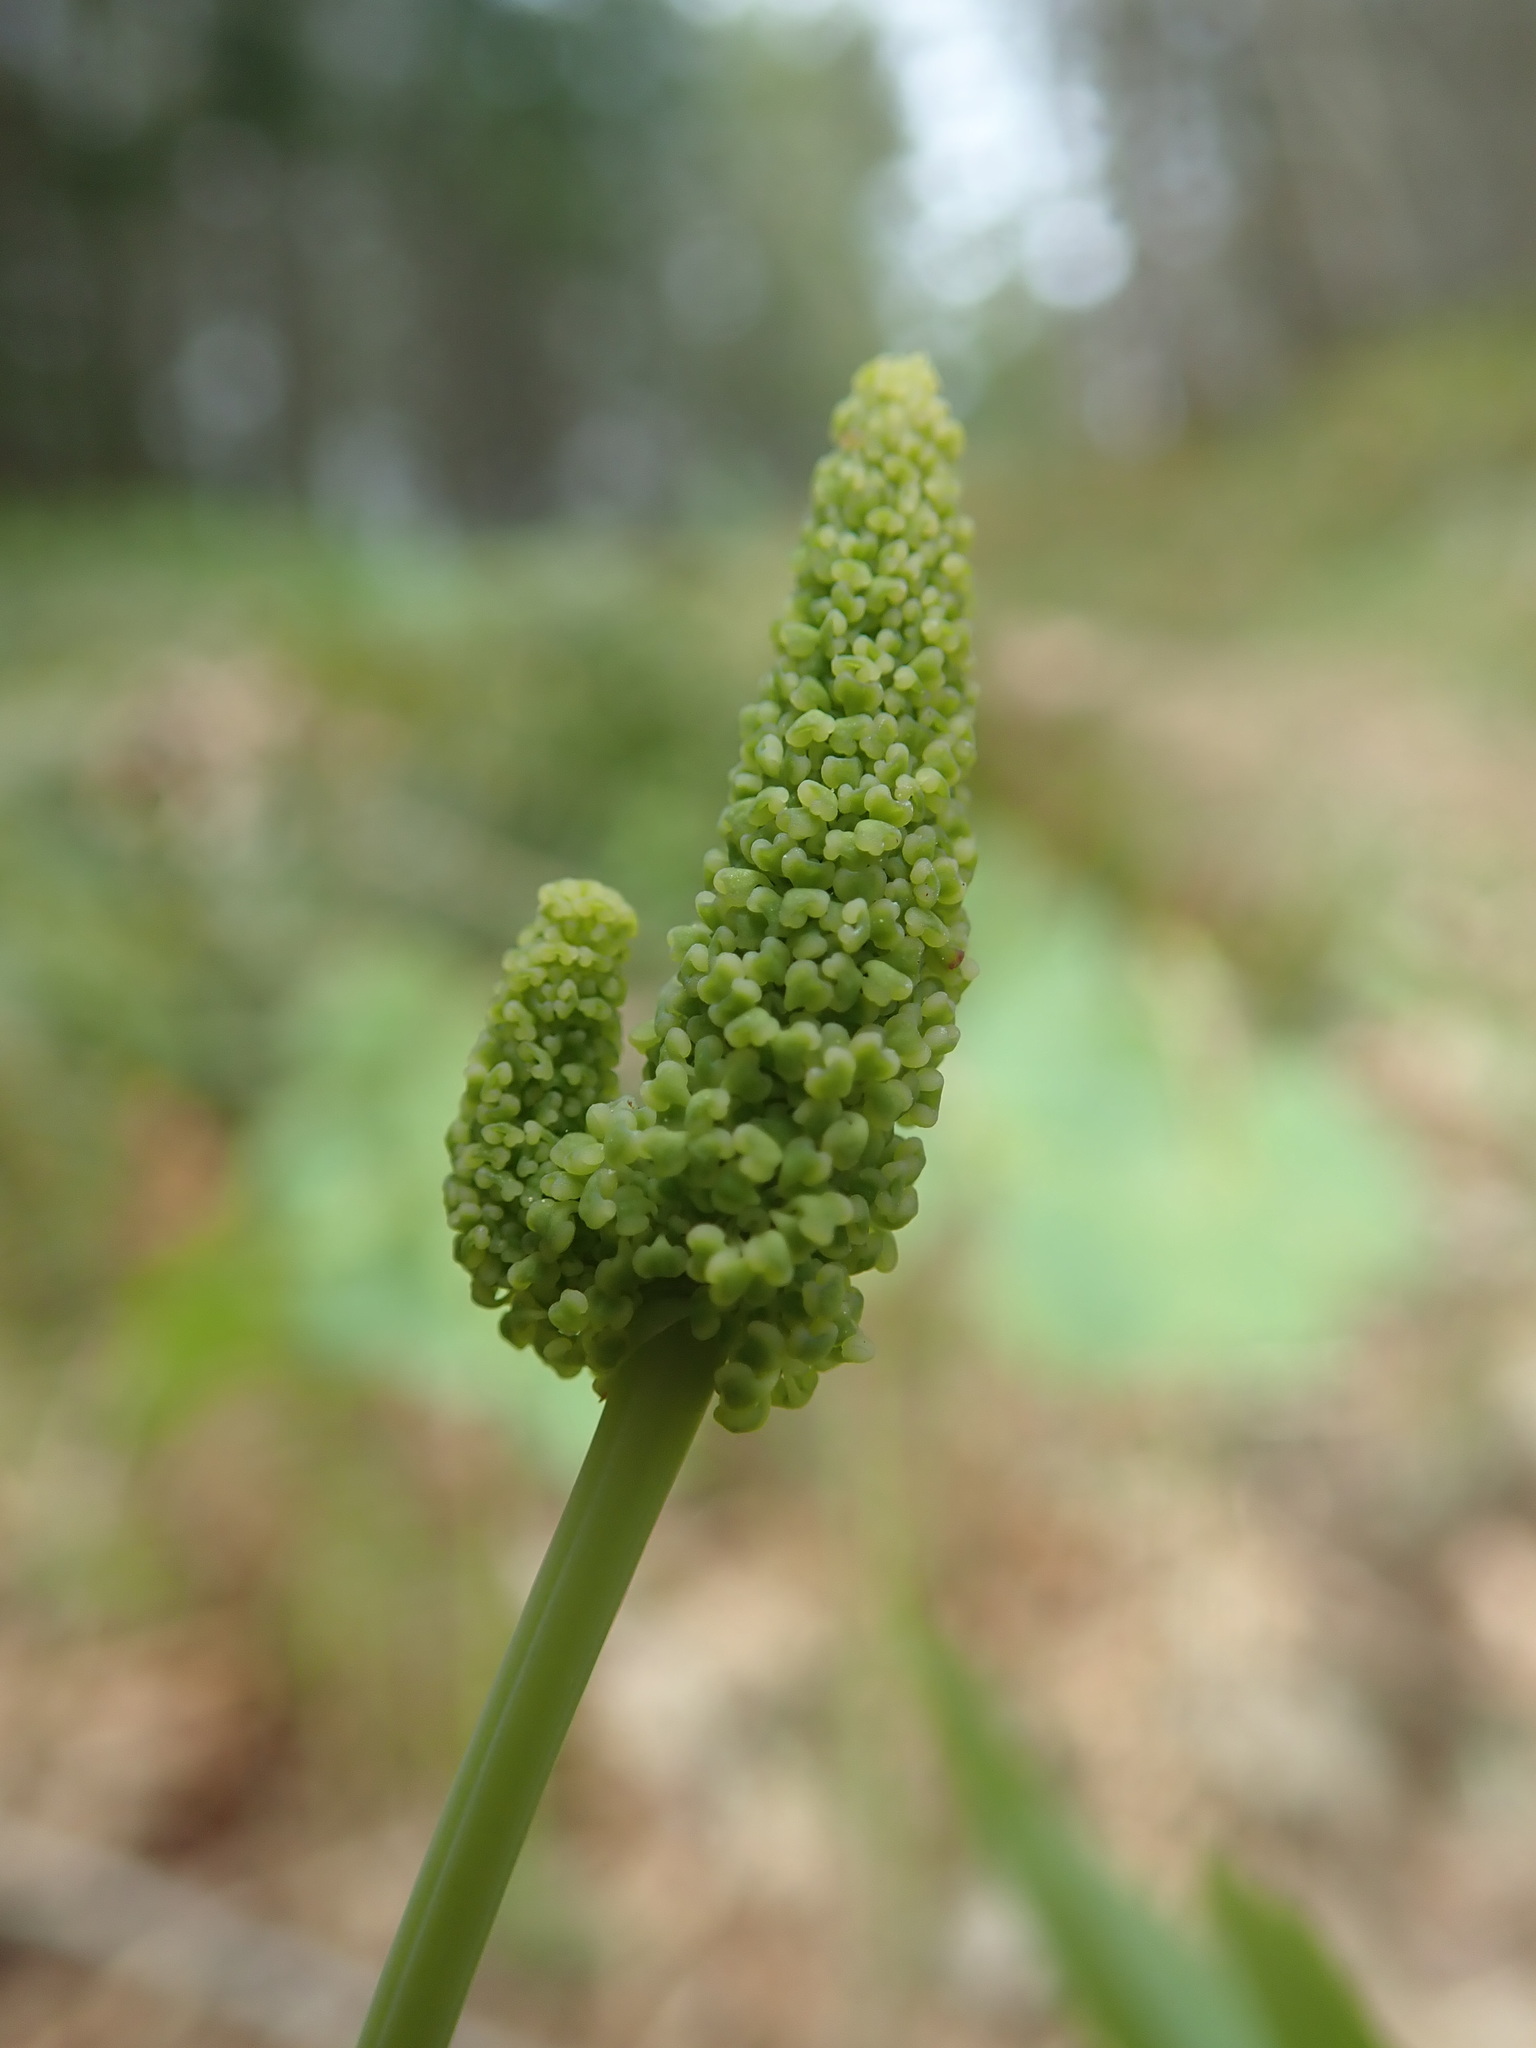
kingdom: Plantae
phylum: Tracheophyta
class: Magnoliopsida
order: Ranunculales
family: Berberidaceae
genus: Achlys
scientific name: Achlys triphylla
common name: Vanilla-leaf
